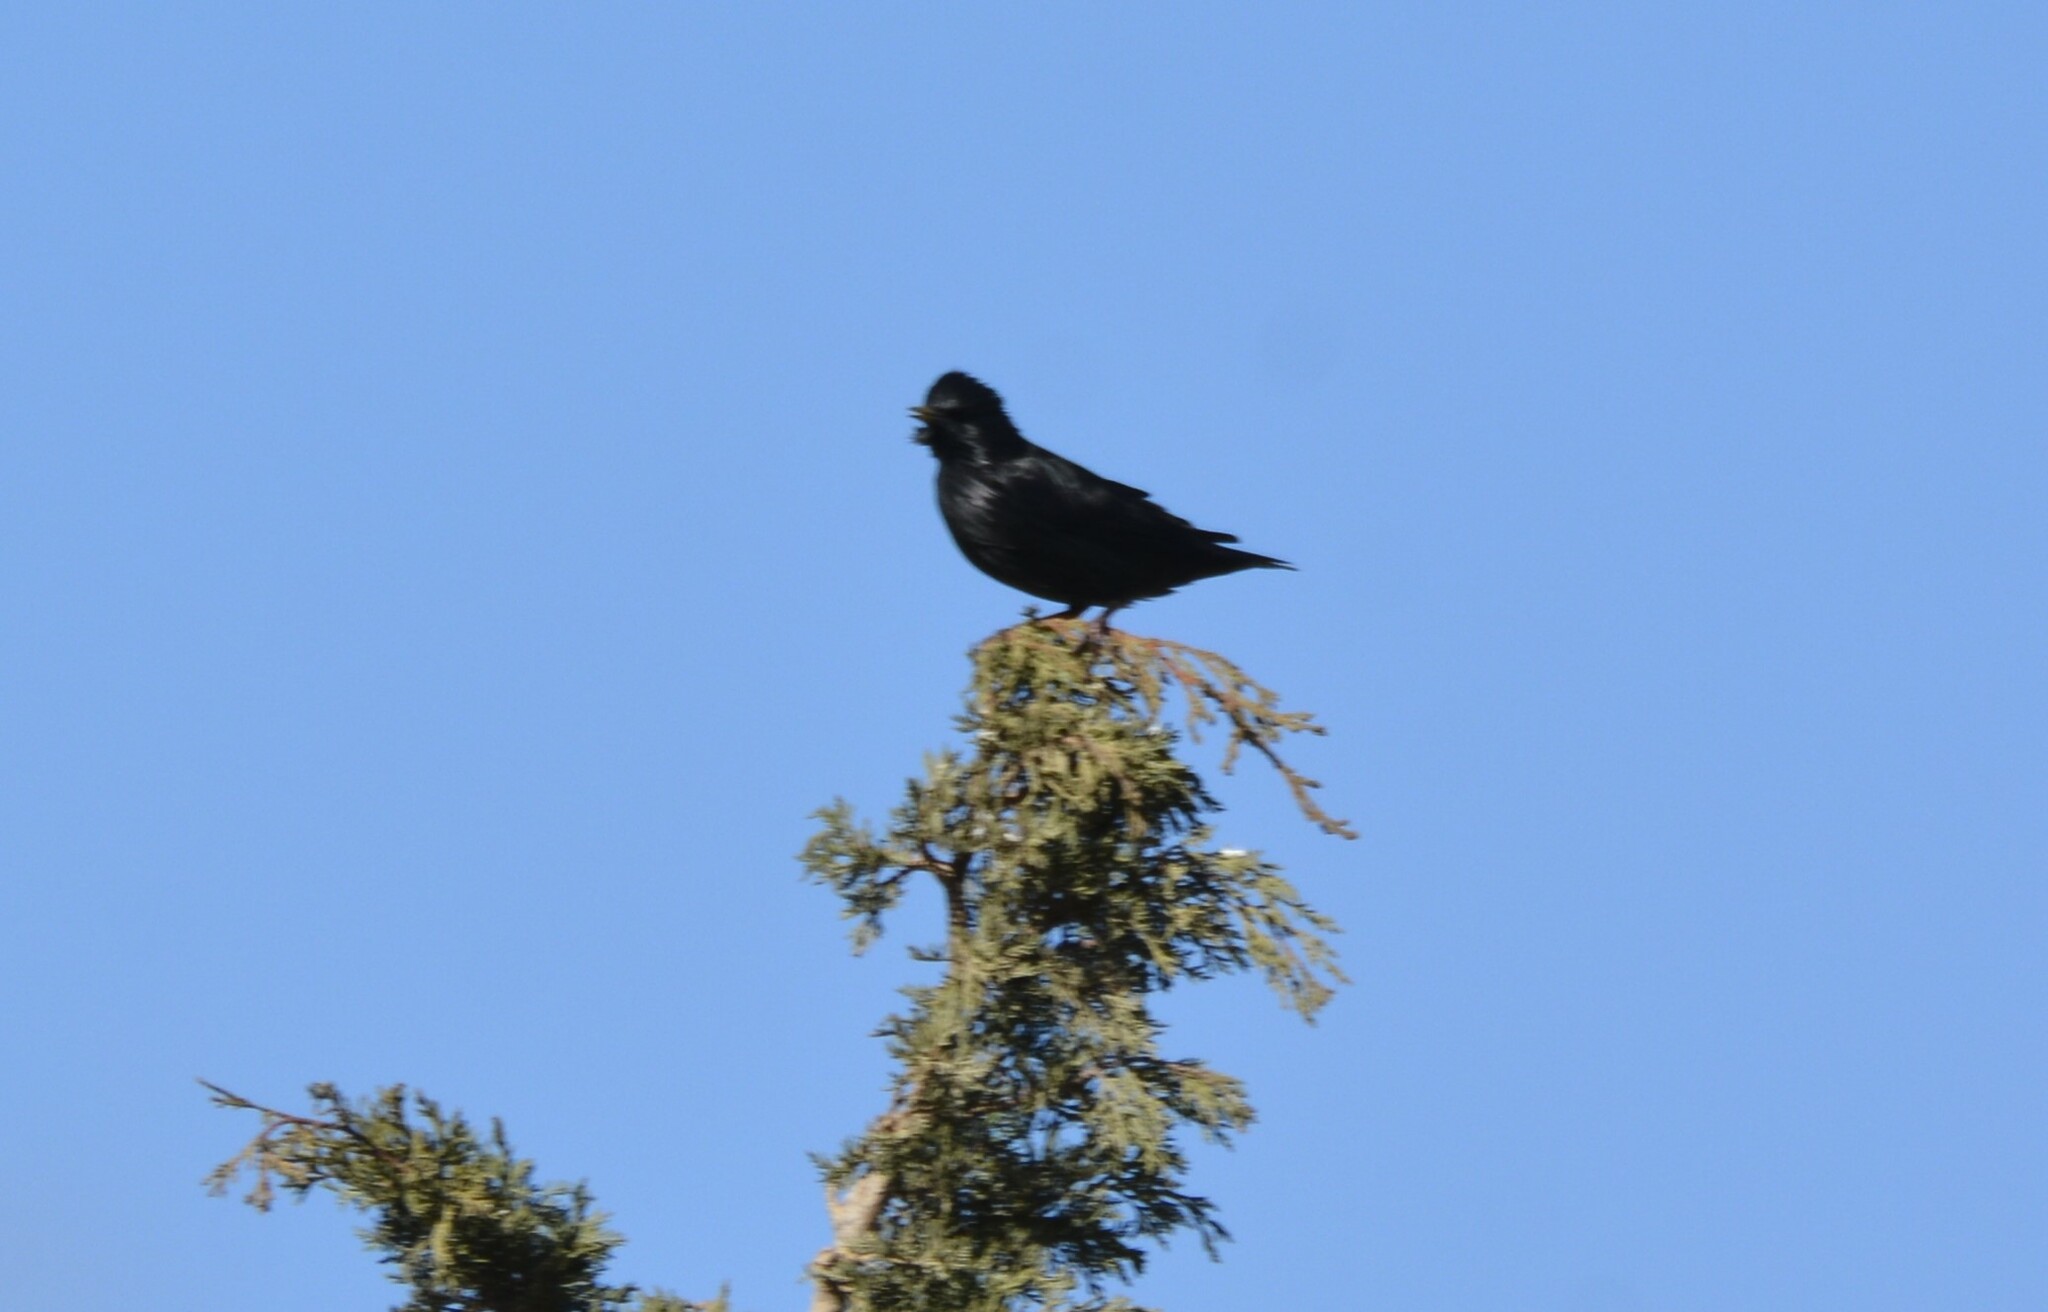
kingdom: Animalia
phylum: Chordata
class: Aves
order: Passeriformes
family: Sturnidae
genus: Sturnus
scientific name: Sturnus unicolor
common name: Spotless starling
